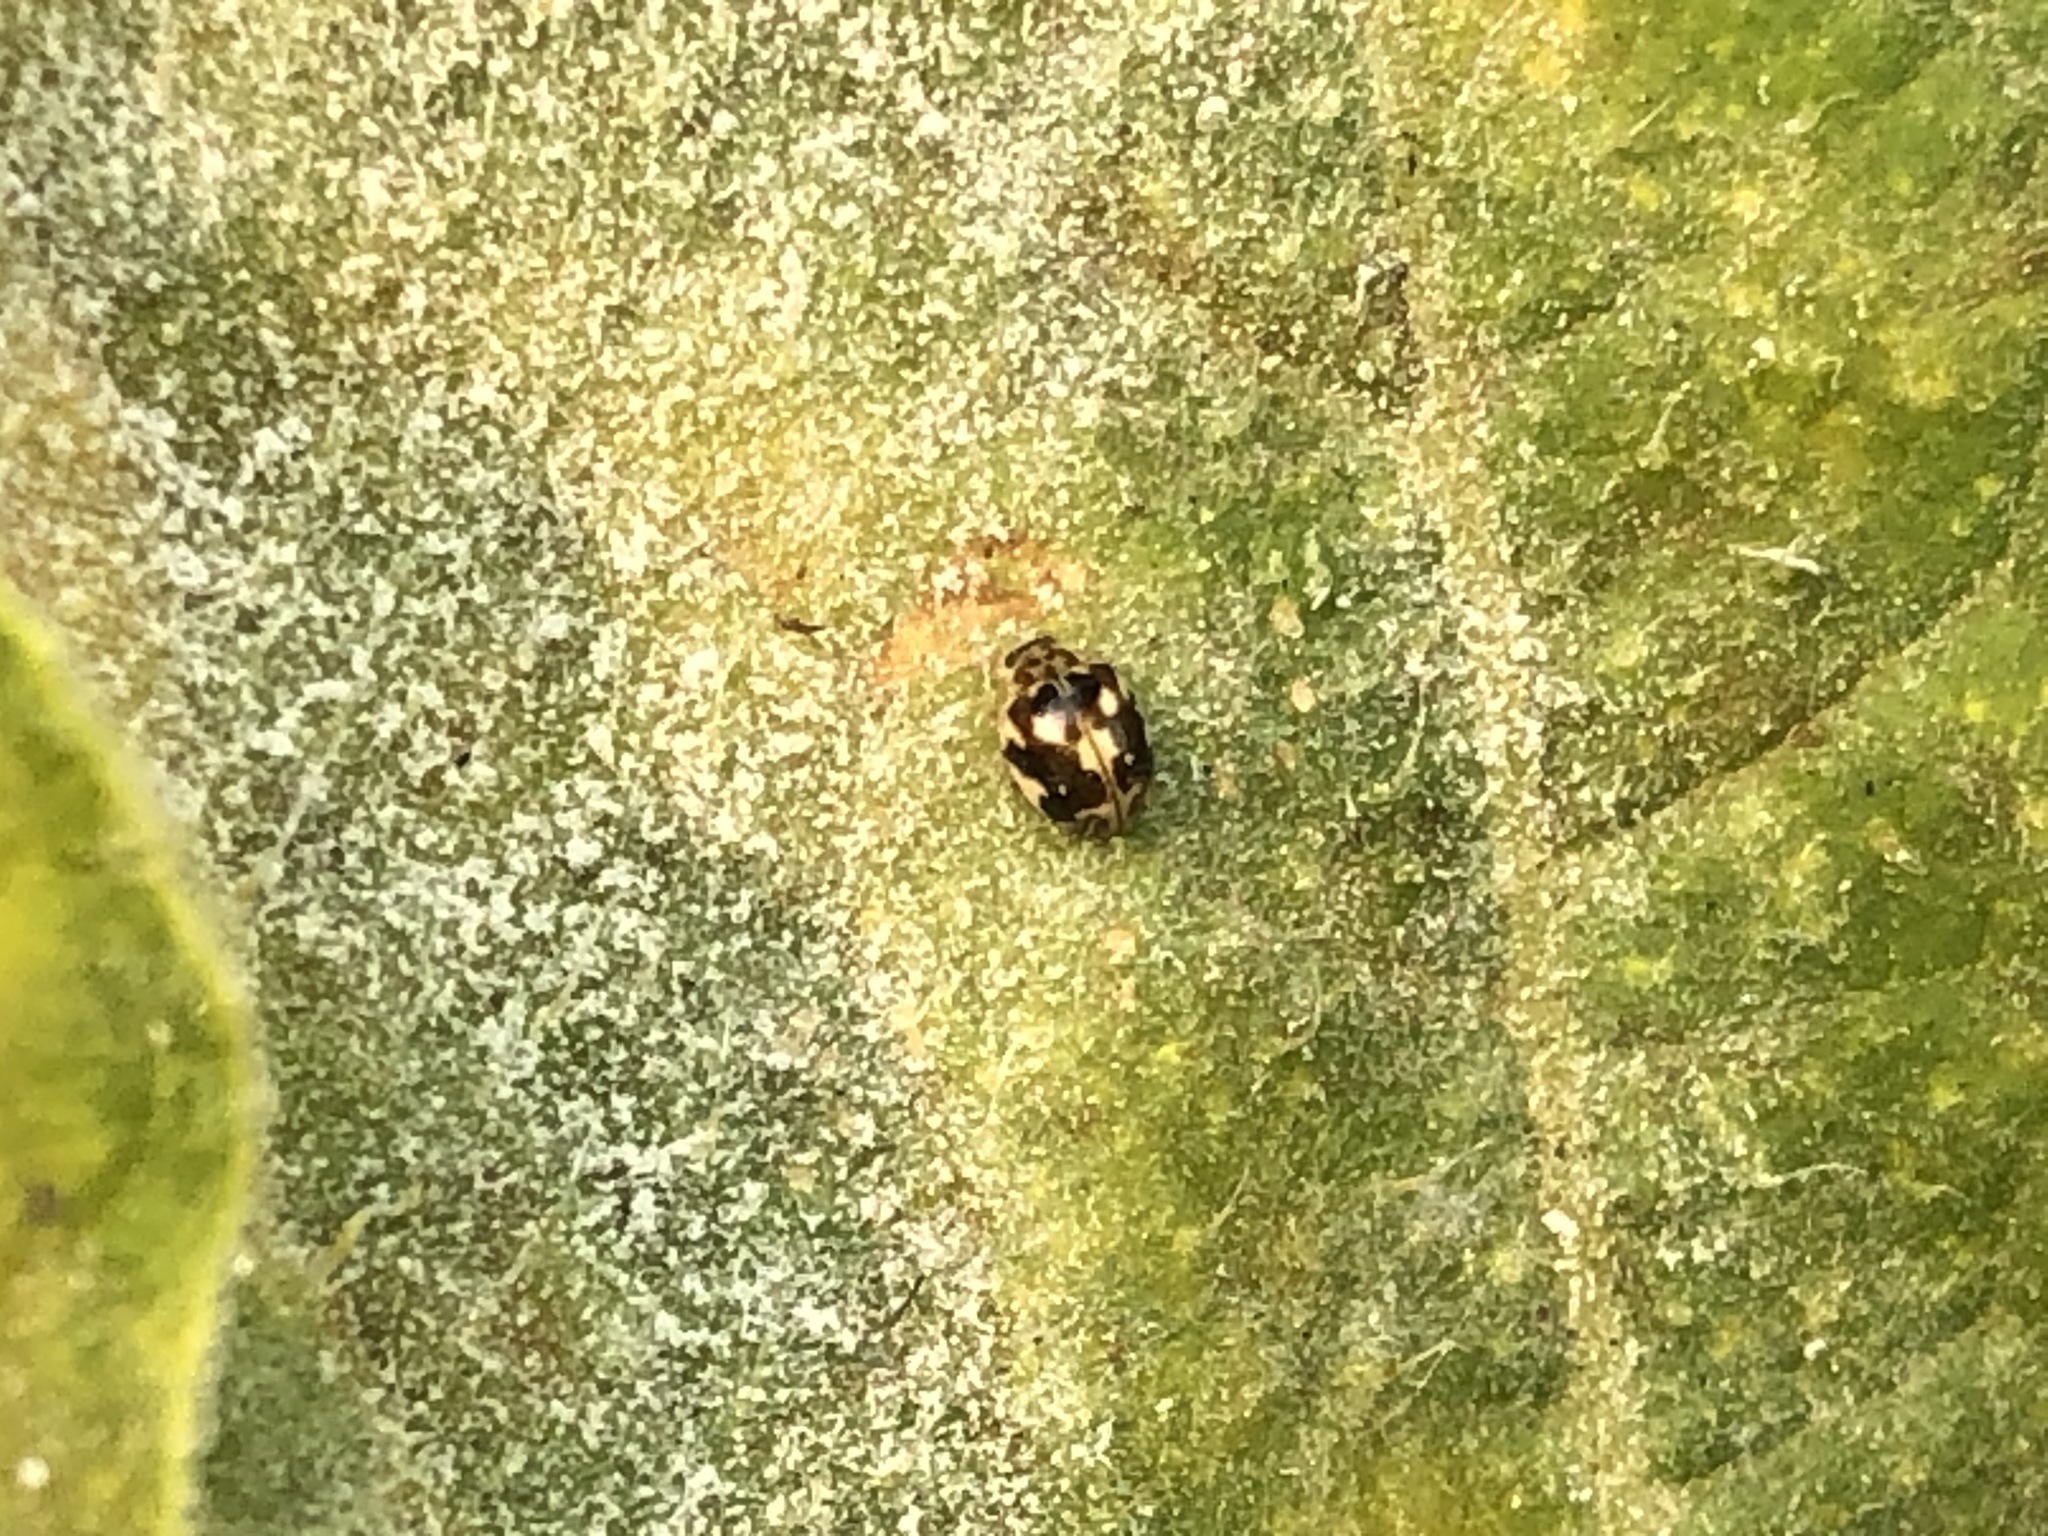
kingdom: Animalia
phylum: Arthropoda
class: Insecta
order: Coleoptera
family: Coccinellidae
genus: Psyllobora
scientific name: Psyllobora vigintimaculata
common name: Ladybird beetle
